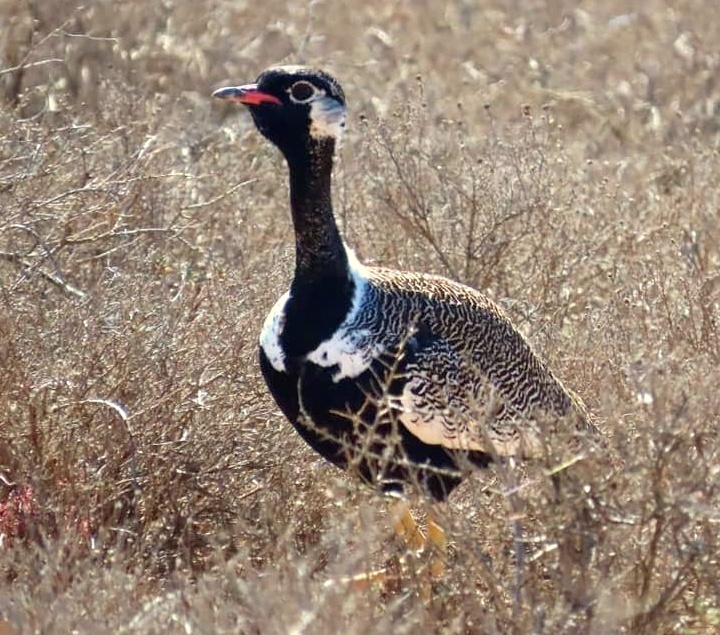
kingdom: Animalia
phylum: Chordata
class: Aves
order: Otidiformes
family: Otididae
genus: Afrotis
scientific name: Afrotis afra
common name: Southern black korhaan
